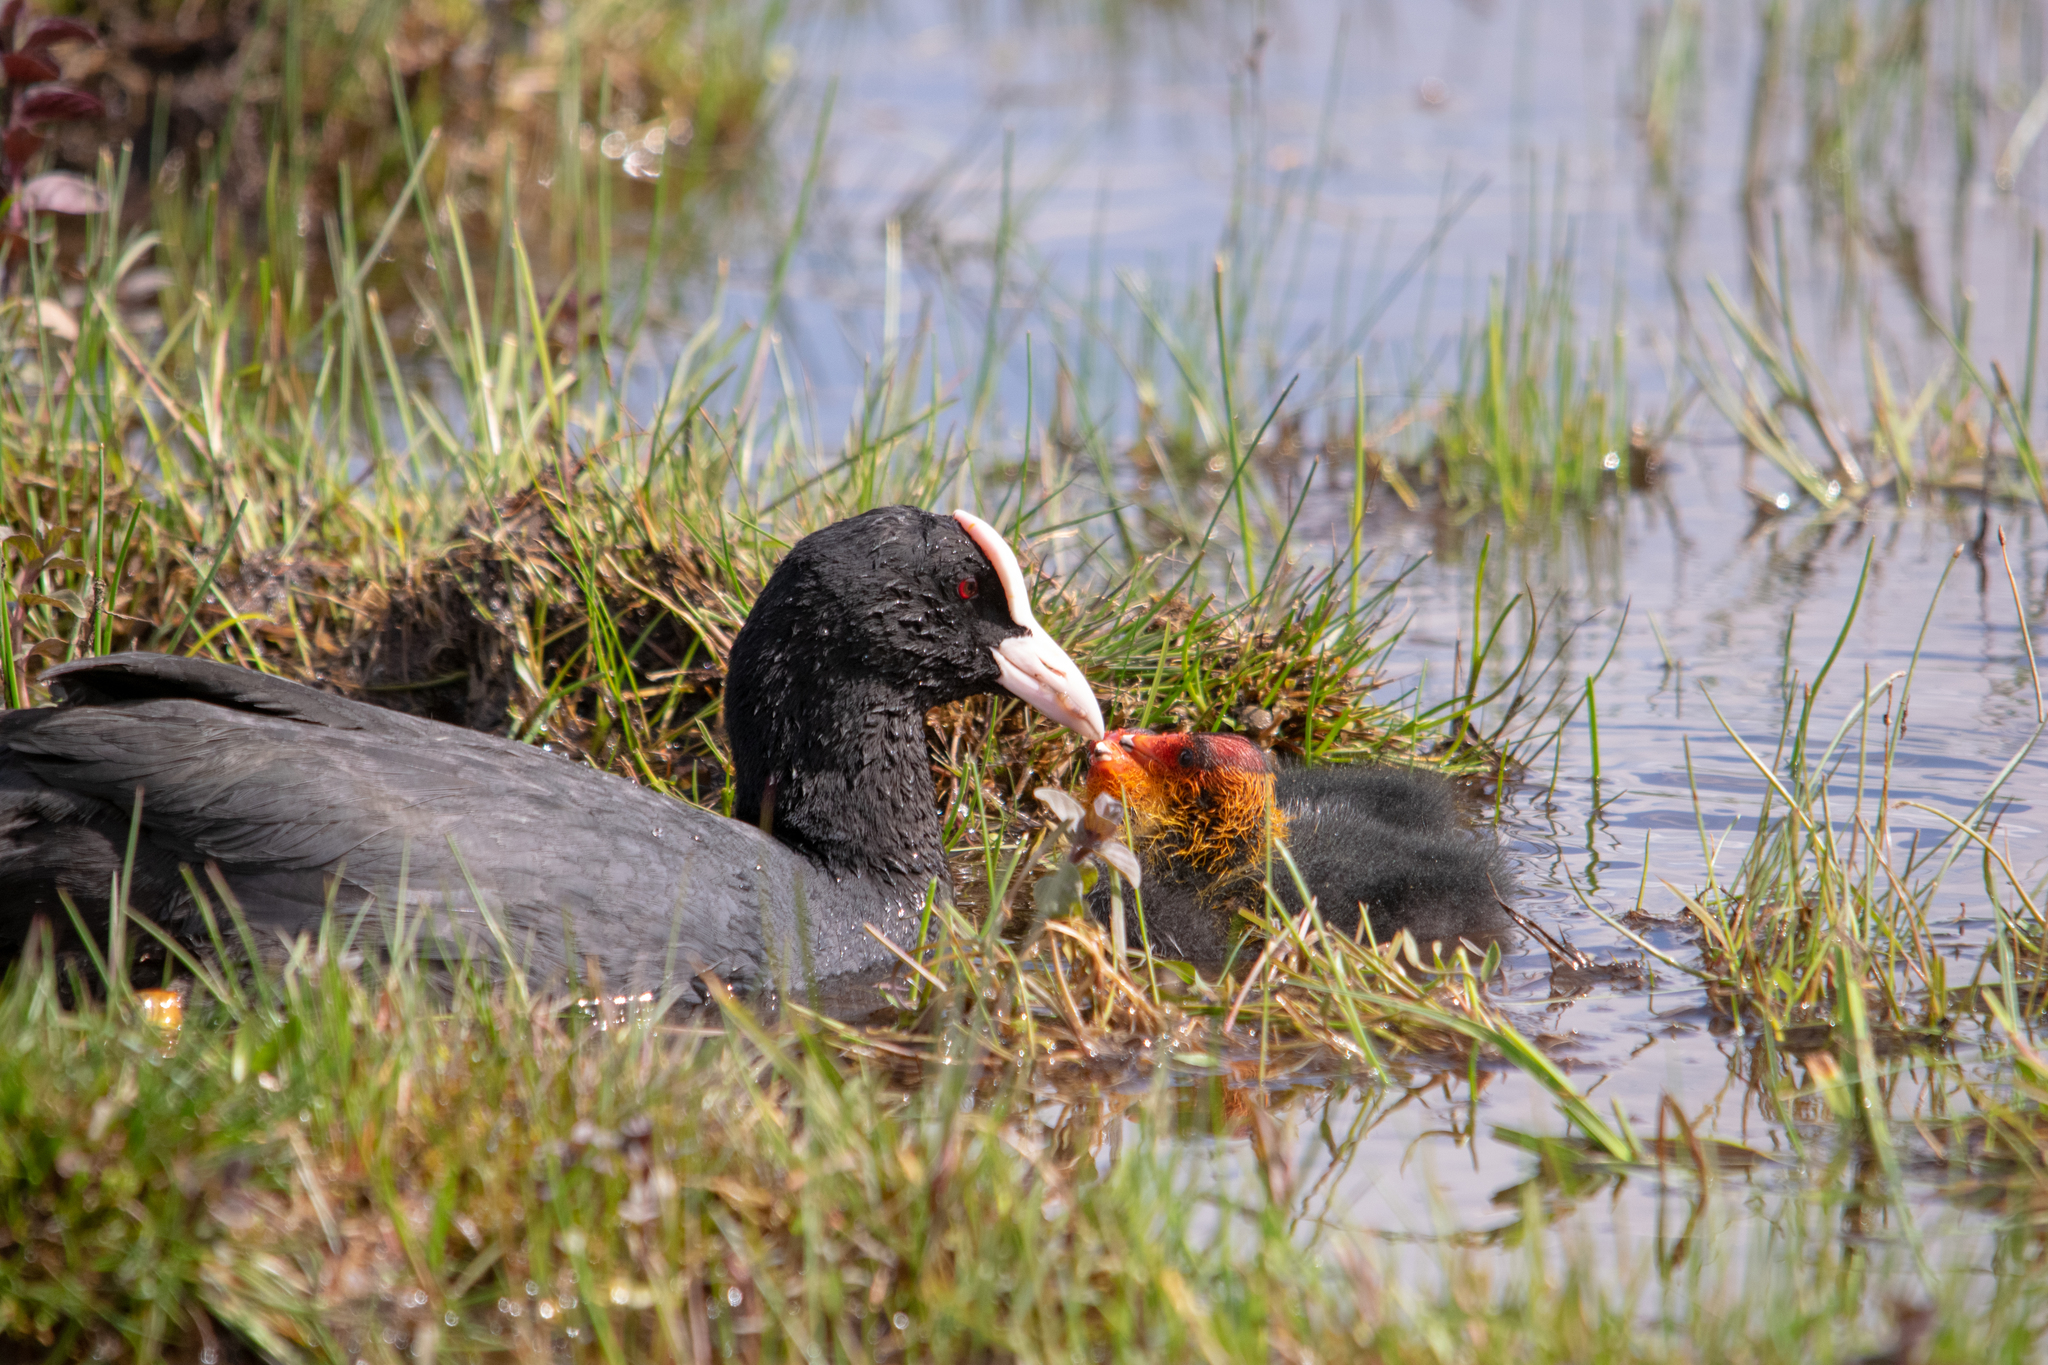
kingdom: Animalia
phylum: Chordata
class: Aves
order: Gruiformes
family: Rallidae
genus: Fulica
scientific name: Fulica atra
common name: Eurasian coot
